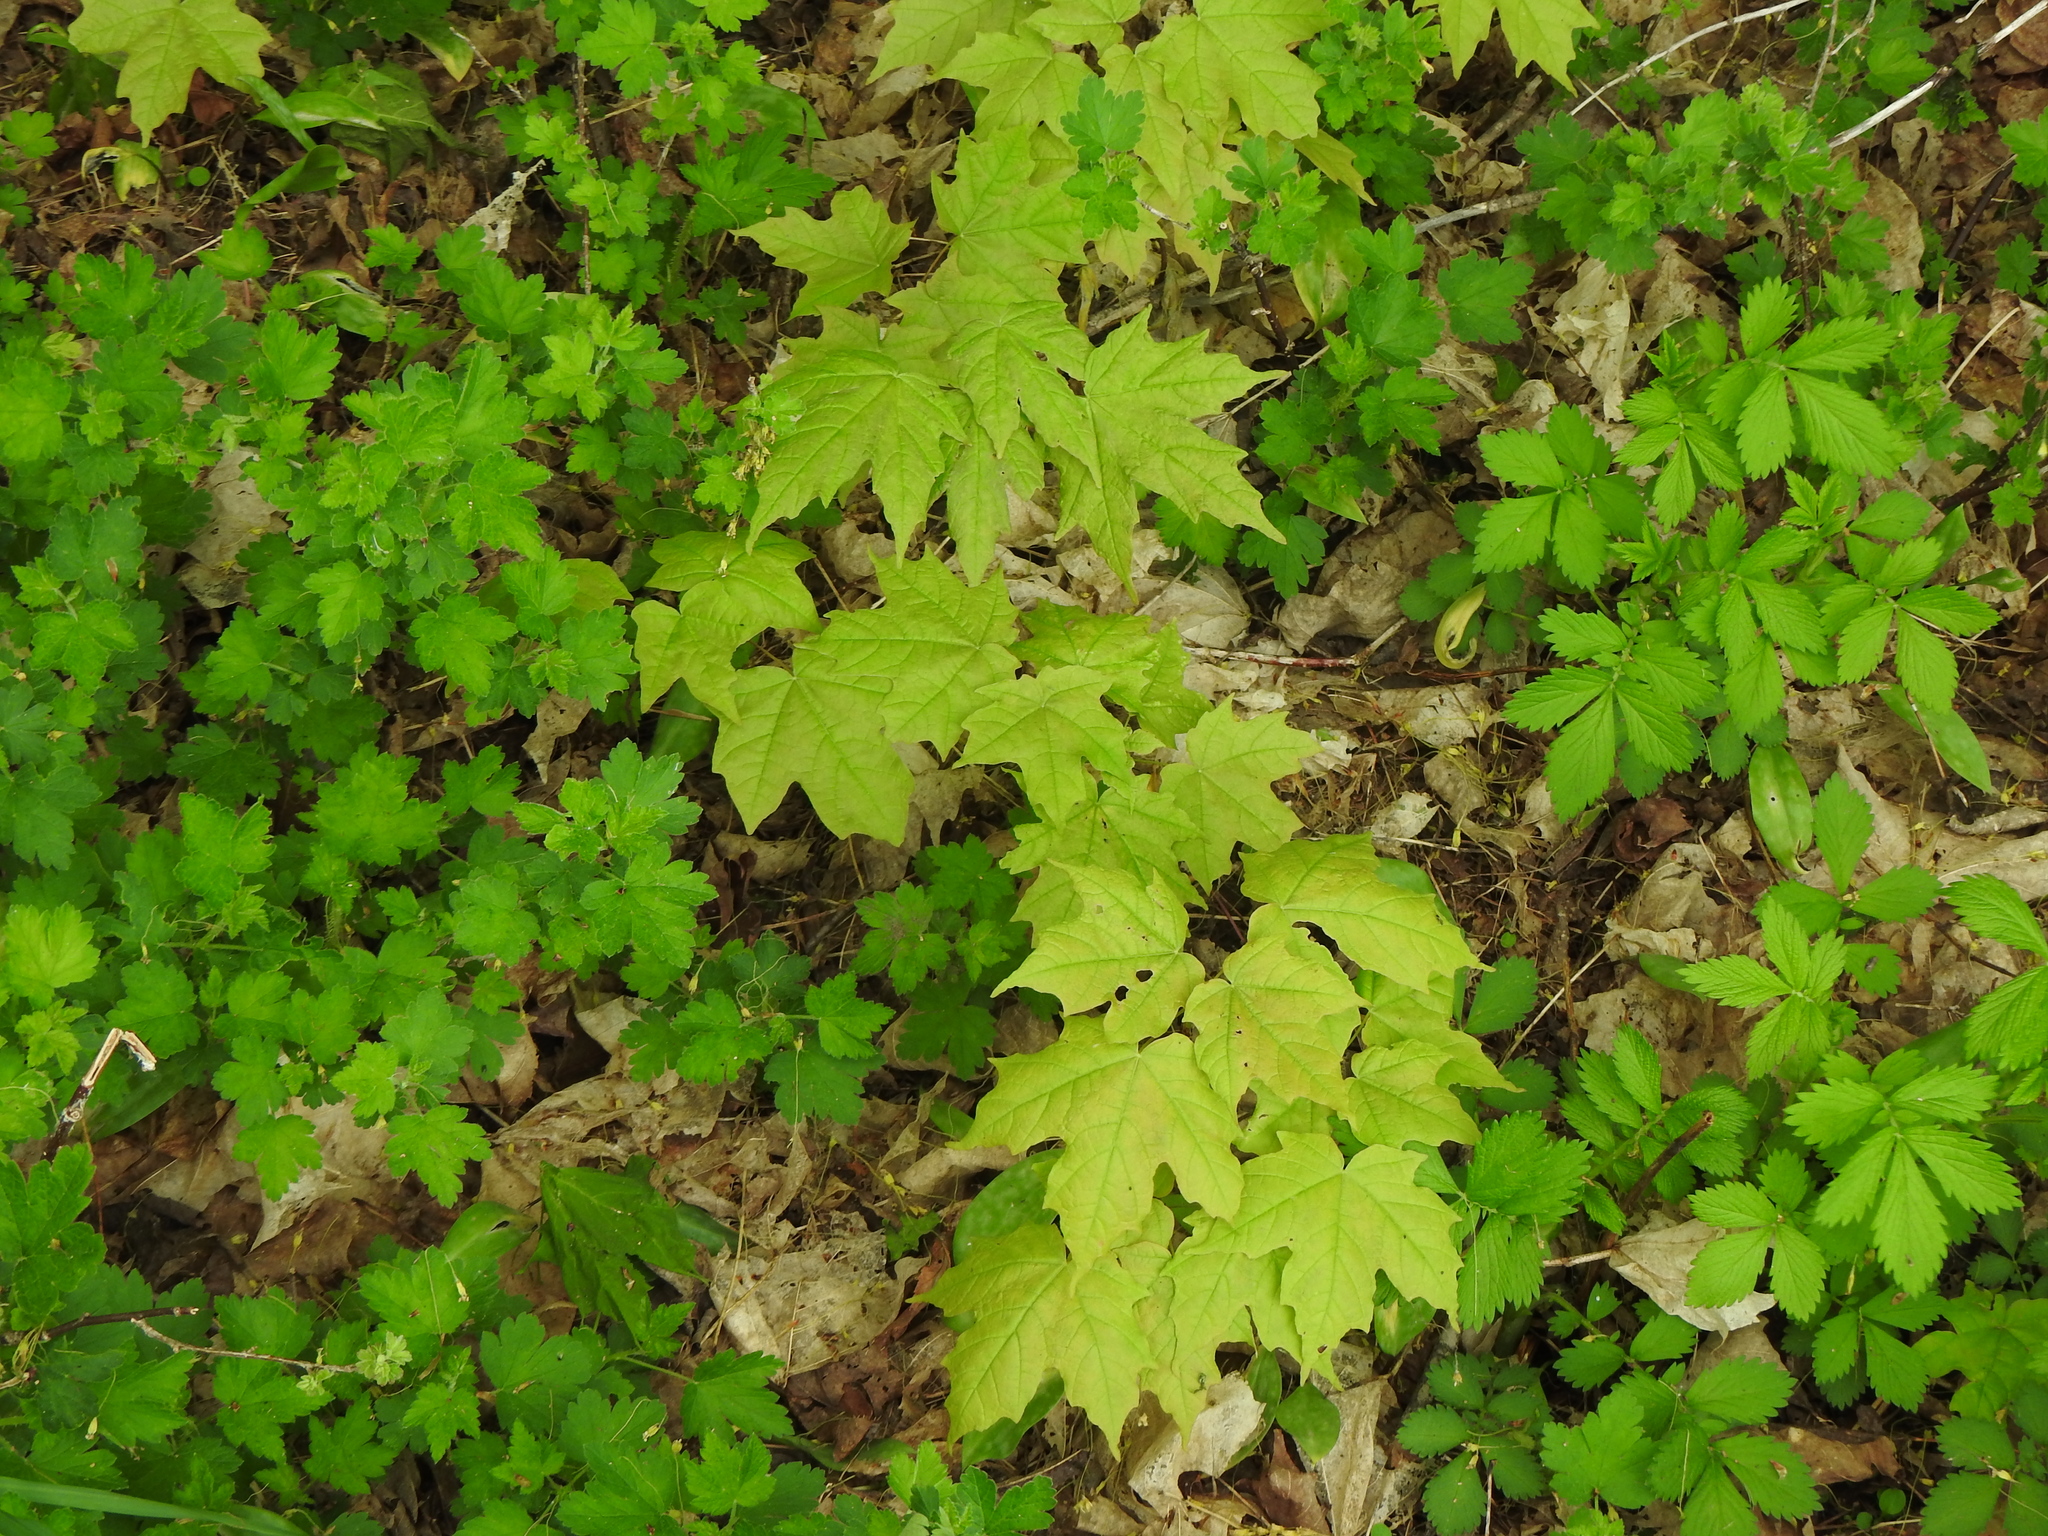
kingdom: Plantae
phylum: Tracheophyta
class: Magnoliopsida
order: Sapindales
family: Sapindaceae
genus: Acer
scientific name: Acer saccharum
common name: Sugar maple
